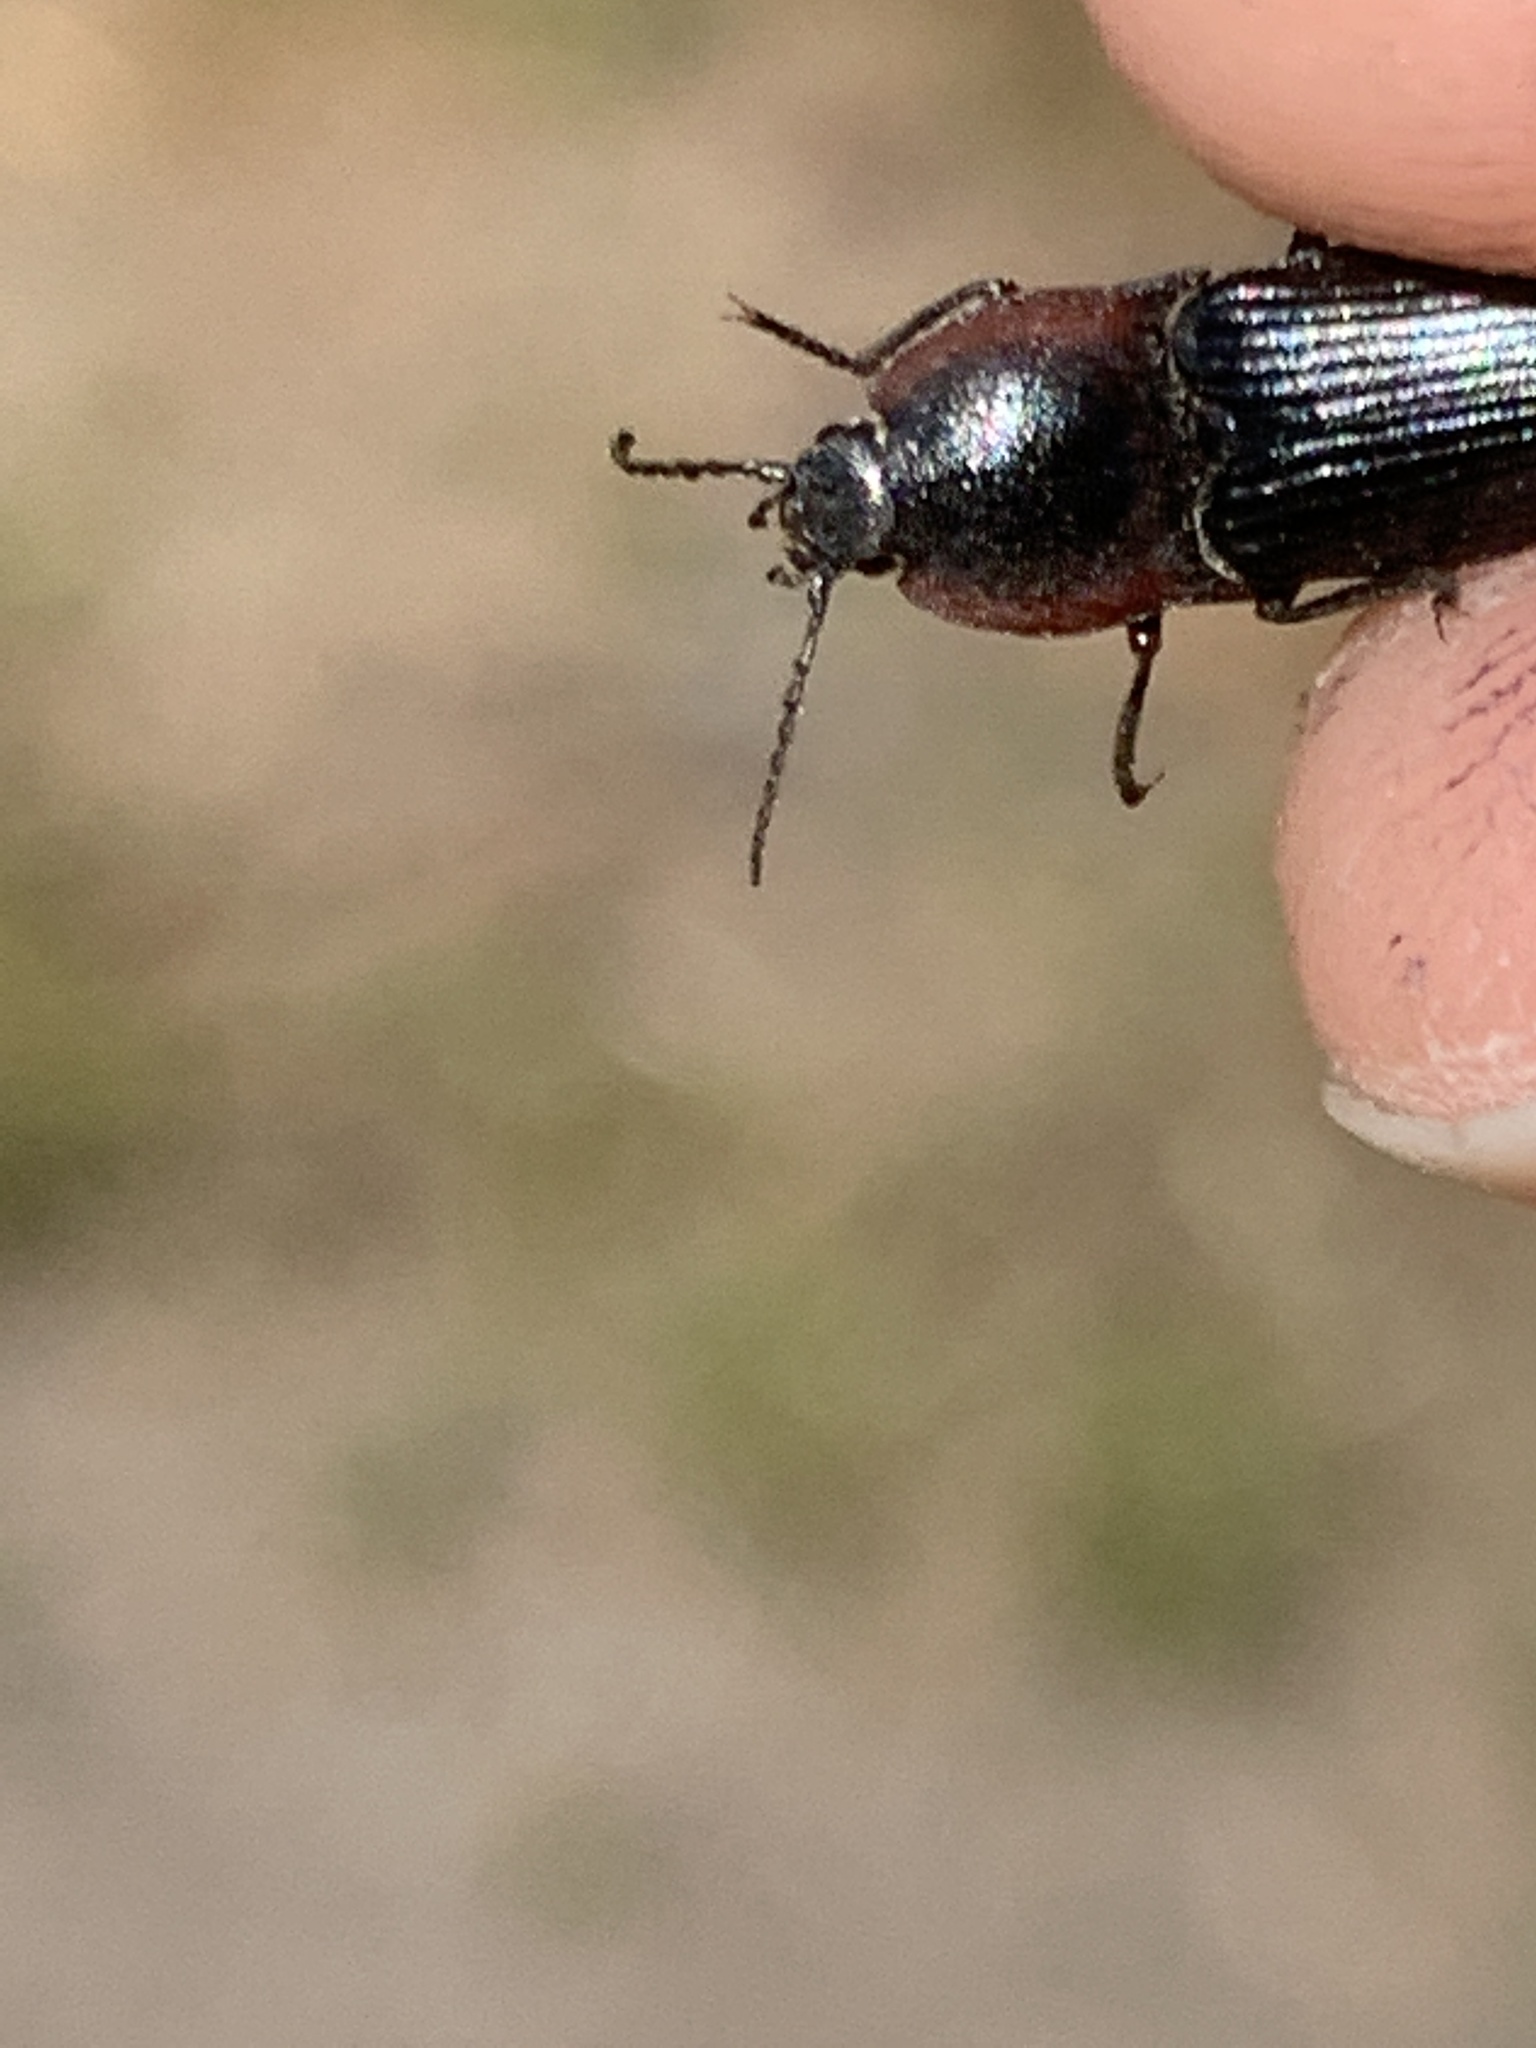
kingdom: Animalia
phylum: Arthropoda
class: Insecta
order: Coleoptera
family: Elateridae
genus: Selatosomus
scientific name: Selatosomus lateralis
